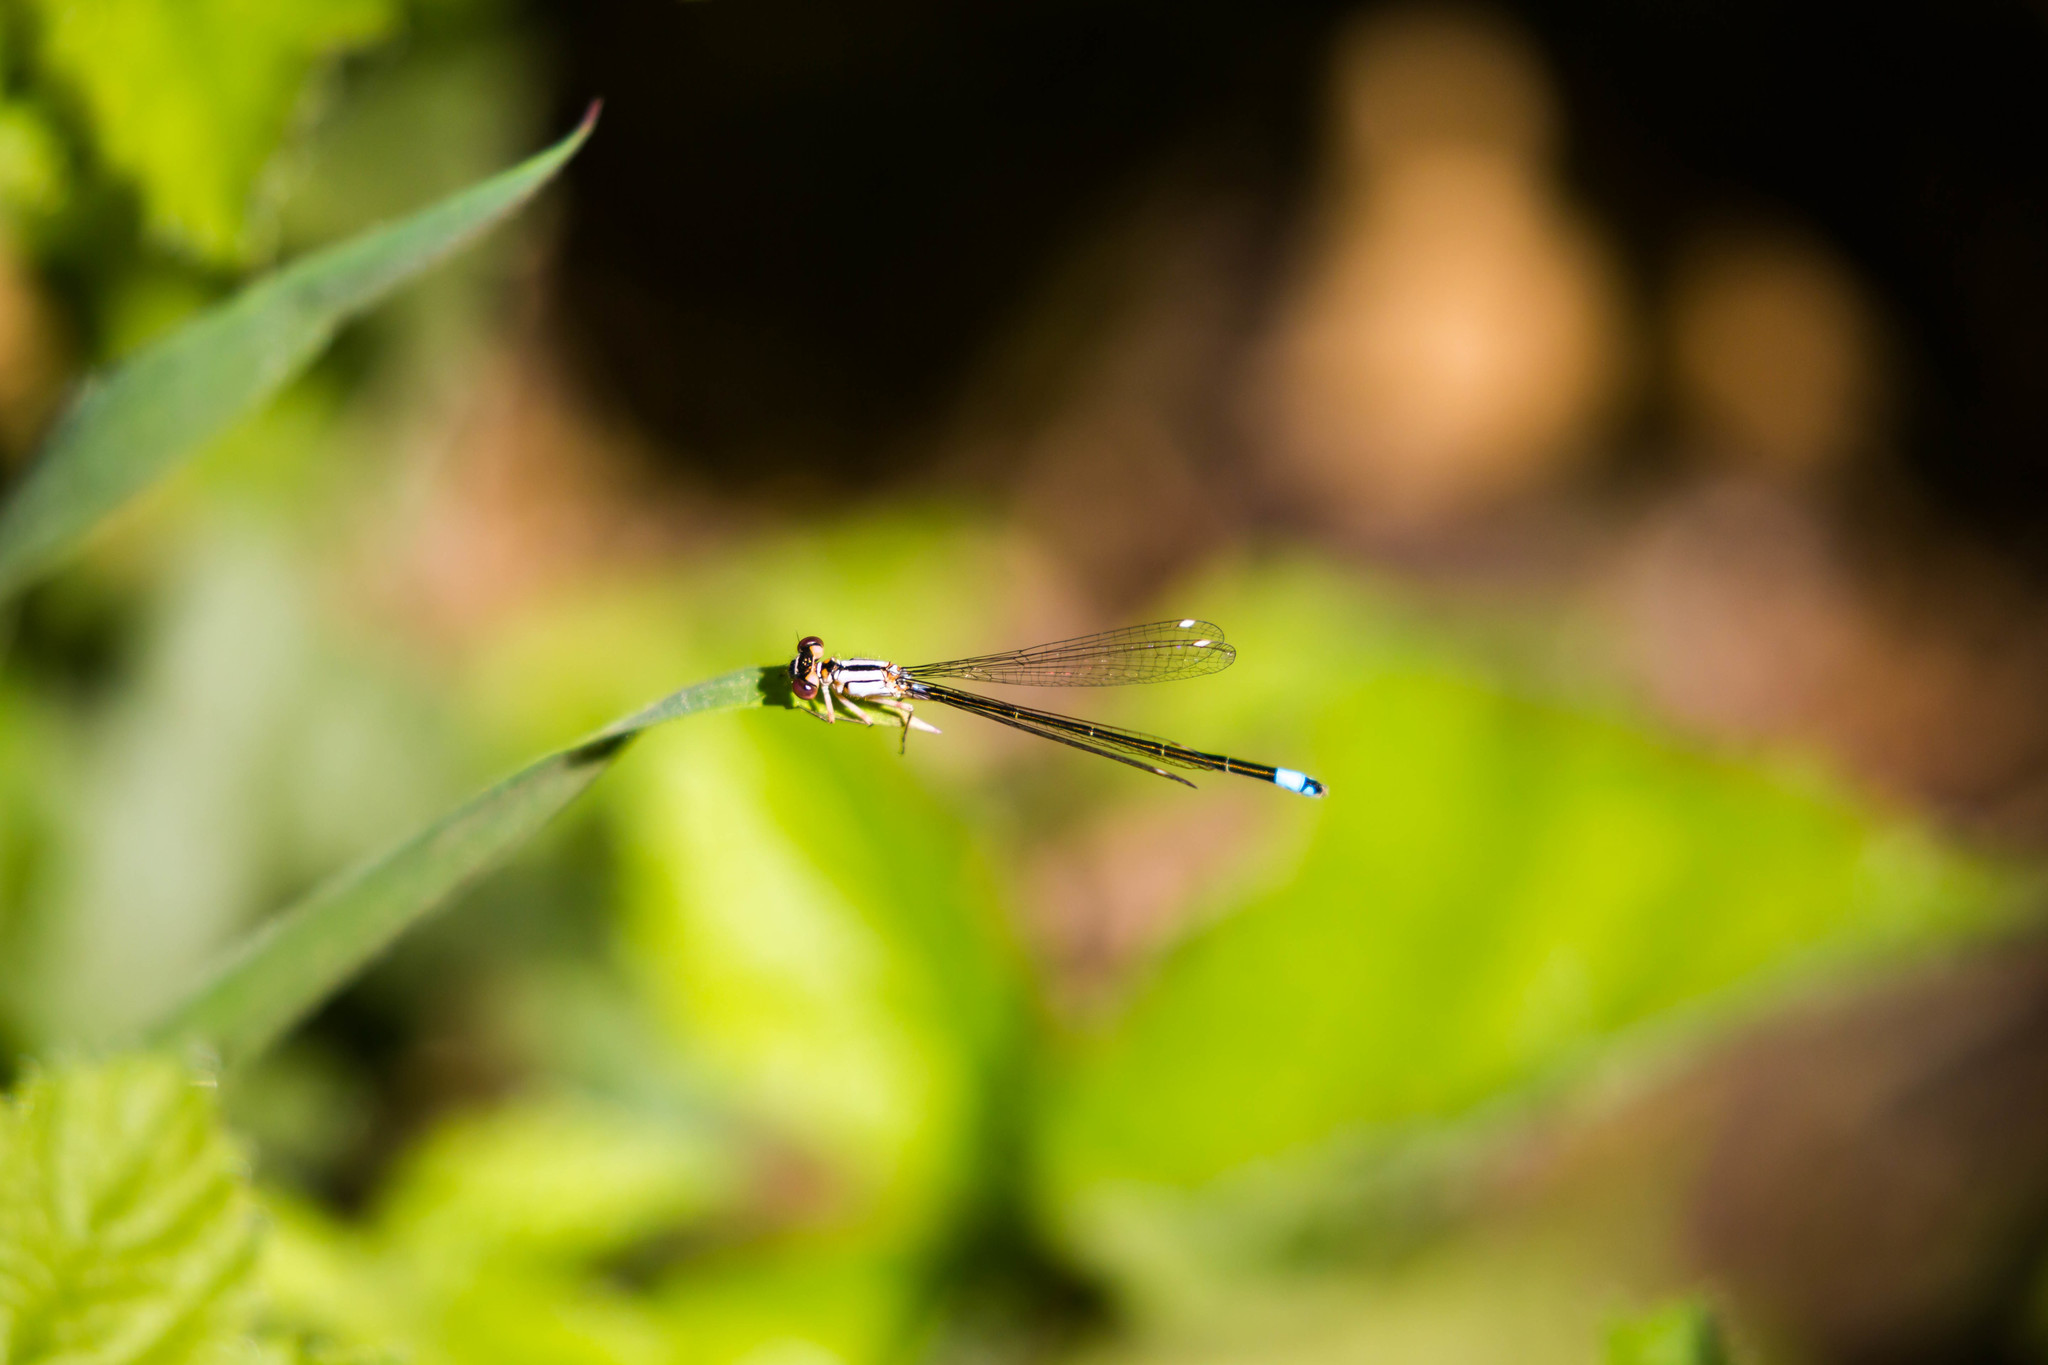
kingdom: Animalia
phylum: Arthropoda
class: Insecta
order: Odonata
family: Coenagrionidae
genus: Ischnura
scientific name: Ischnura cervula
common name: Pacific forktail
